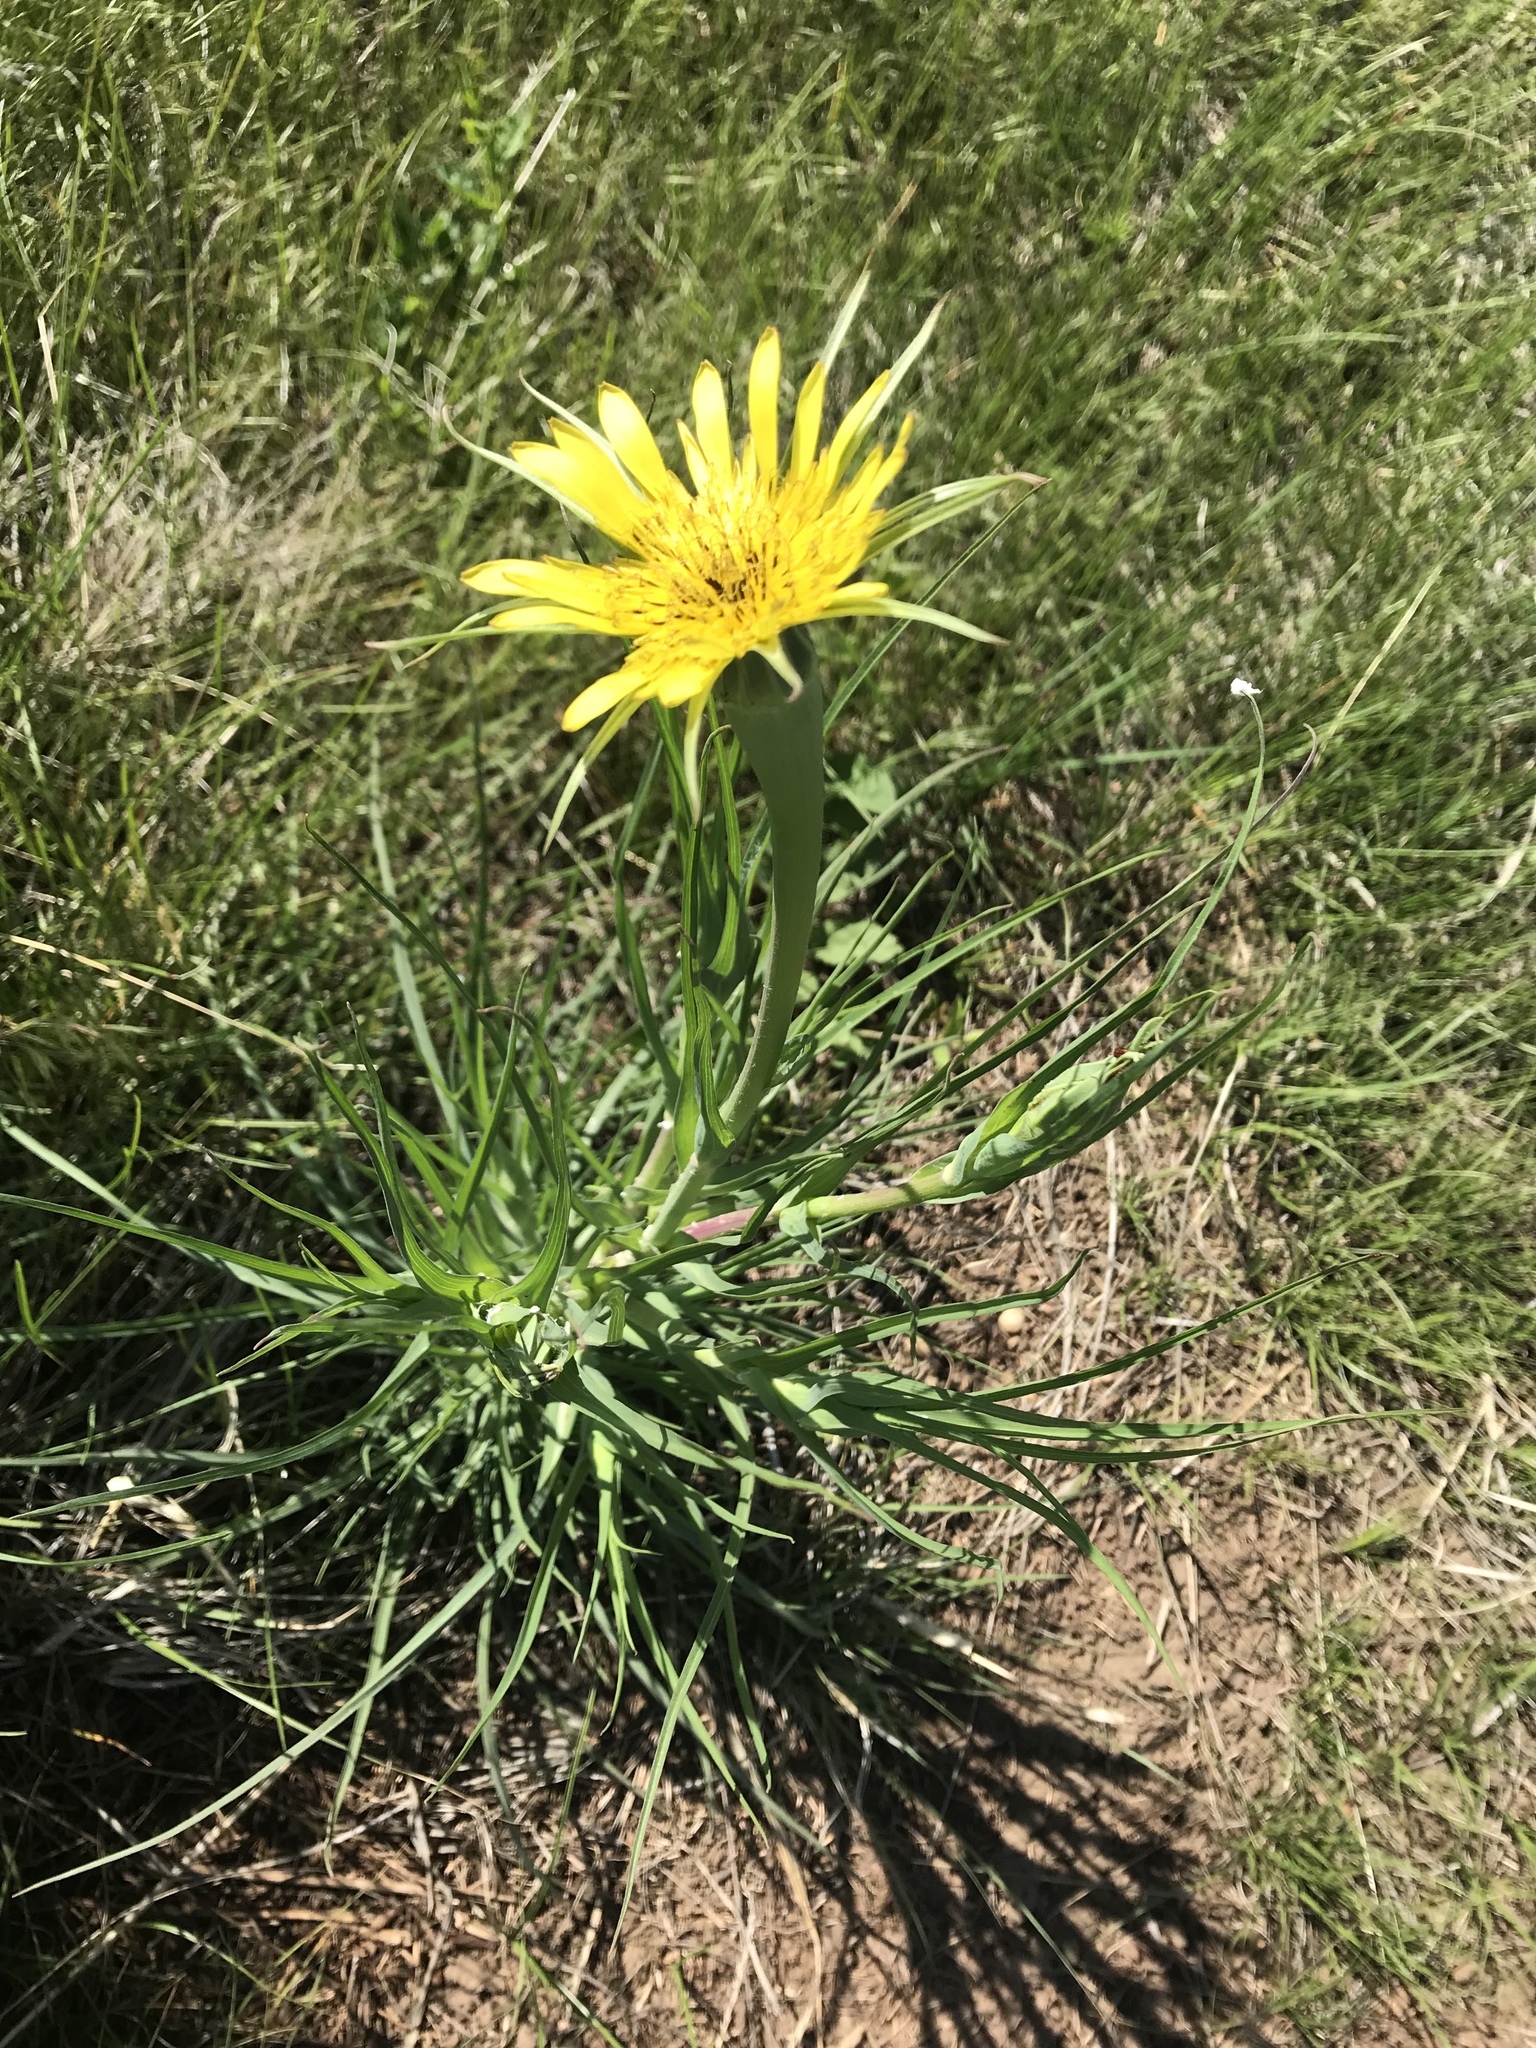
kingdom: Plantae
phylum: Tracheophyta
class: Magnoliopsida
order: Asterales
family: Asteraceae
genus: Tragopogon
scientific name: Tragopogon dubius
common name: Yellow salsify
